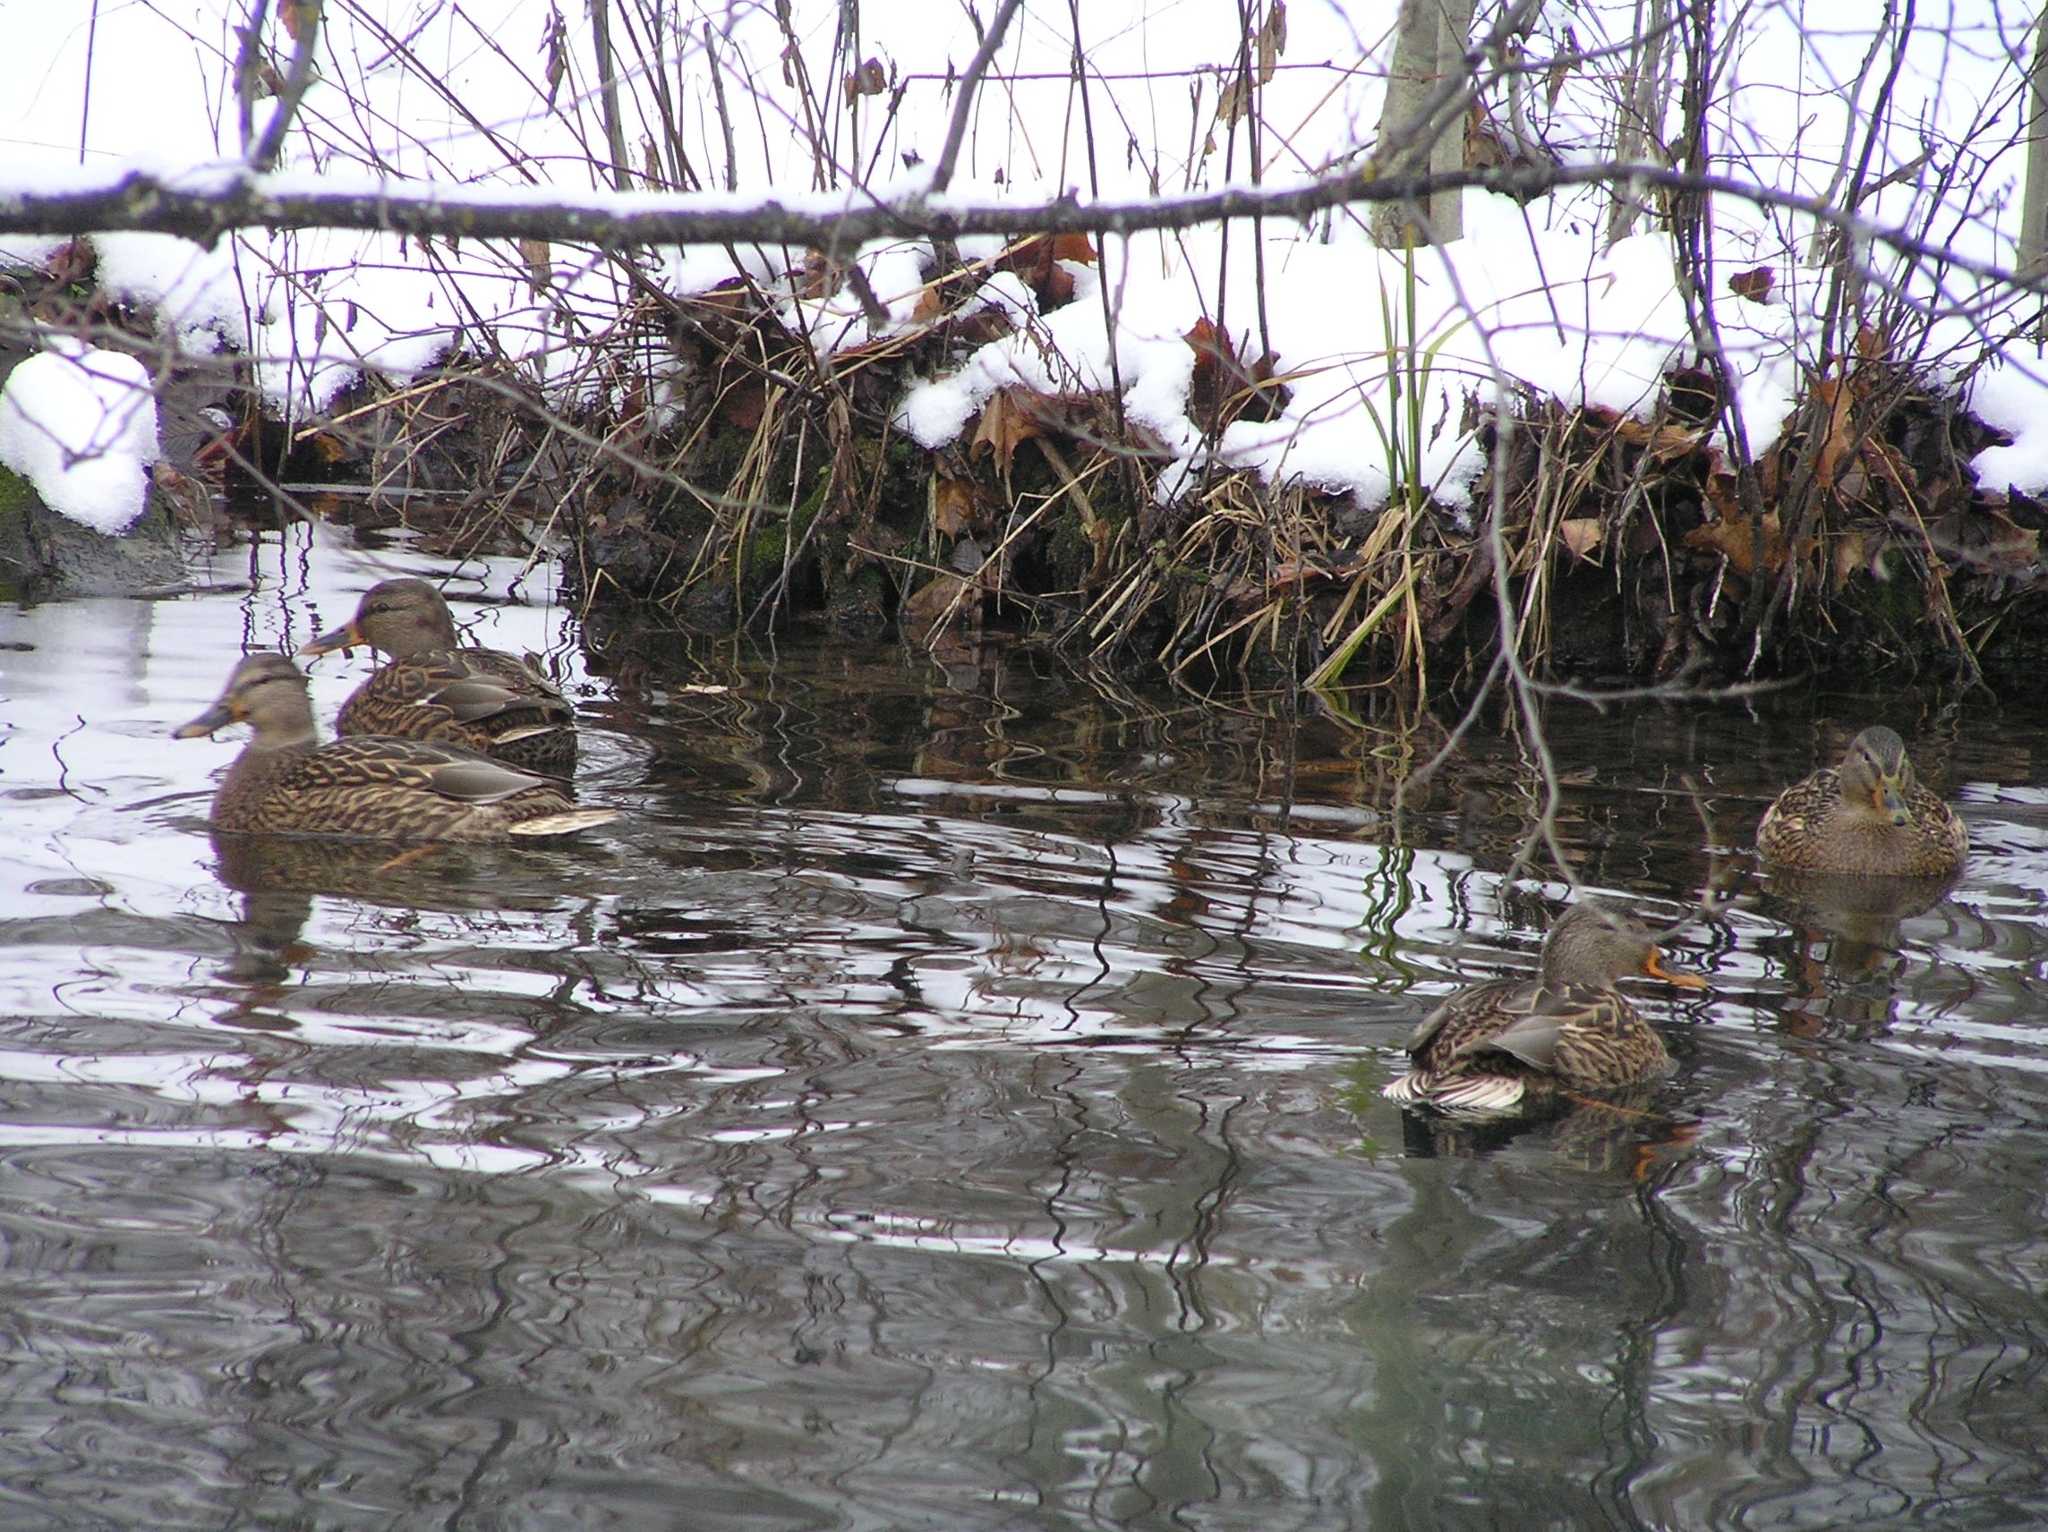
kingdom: Animalia
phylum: Chordata
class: Aves
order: Anseriformes
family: Anatidae
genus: Anas
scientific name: Anas platyrhynchos
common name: Mallard
